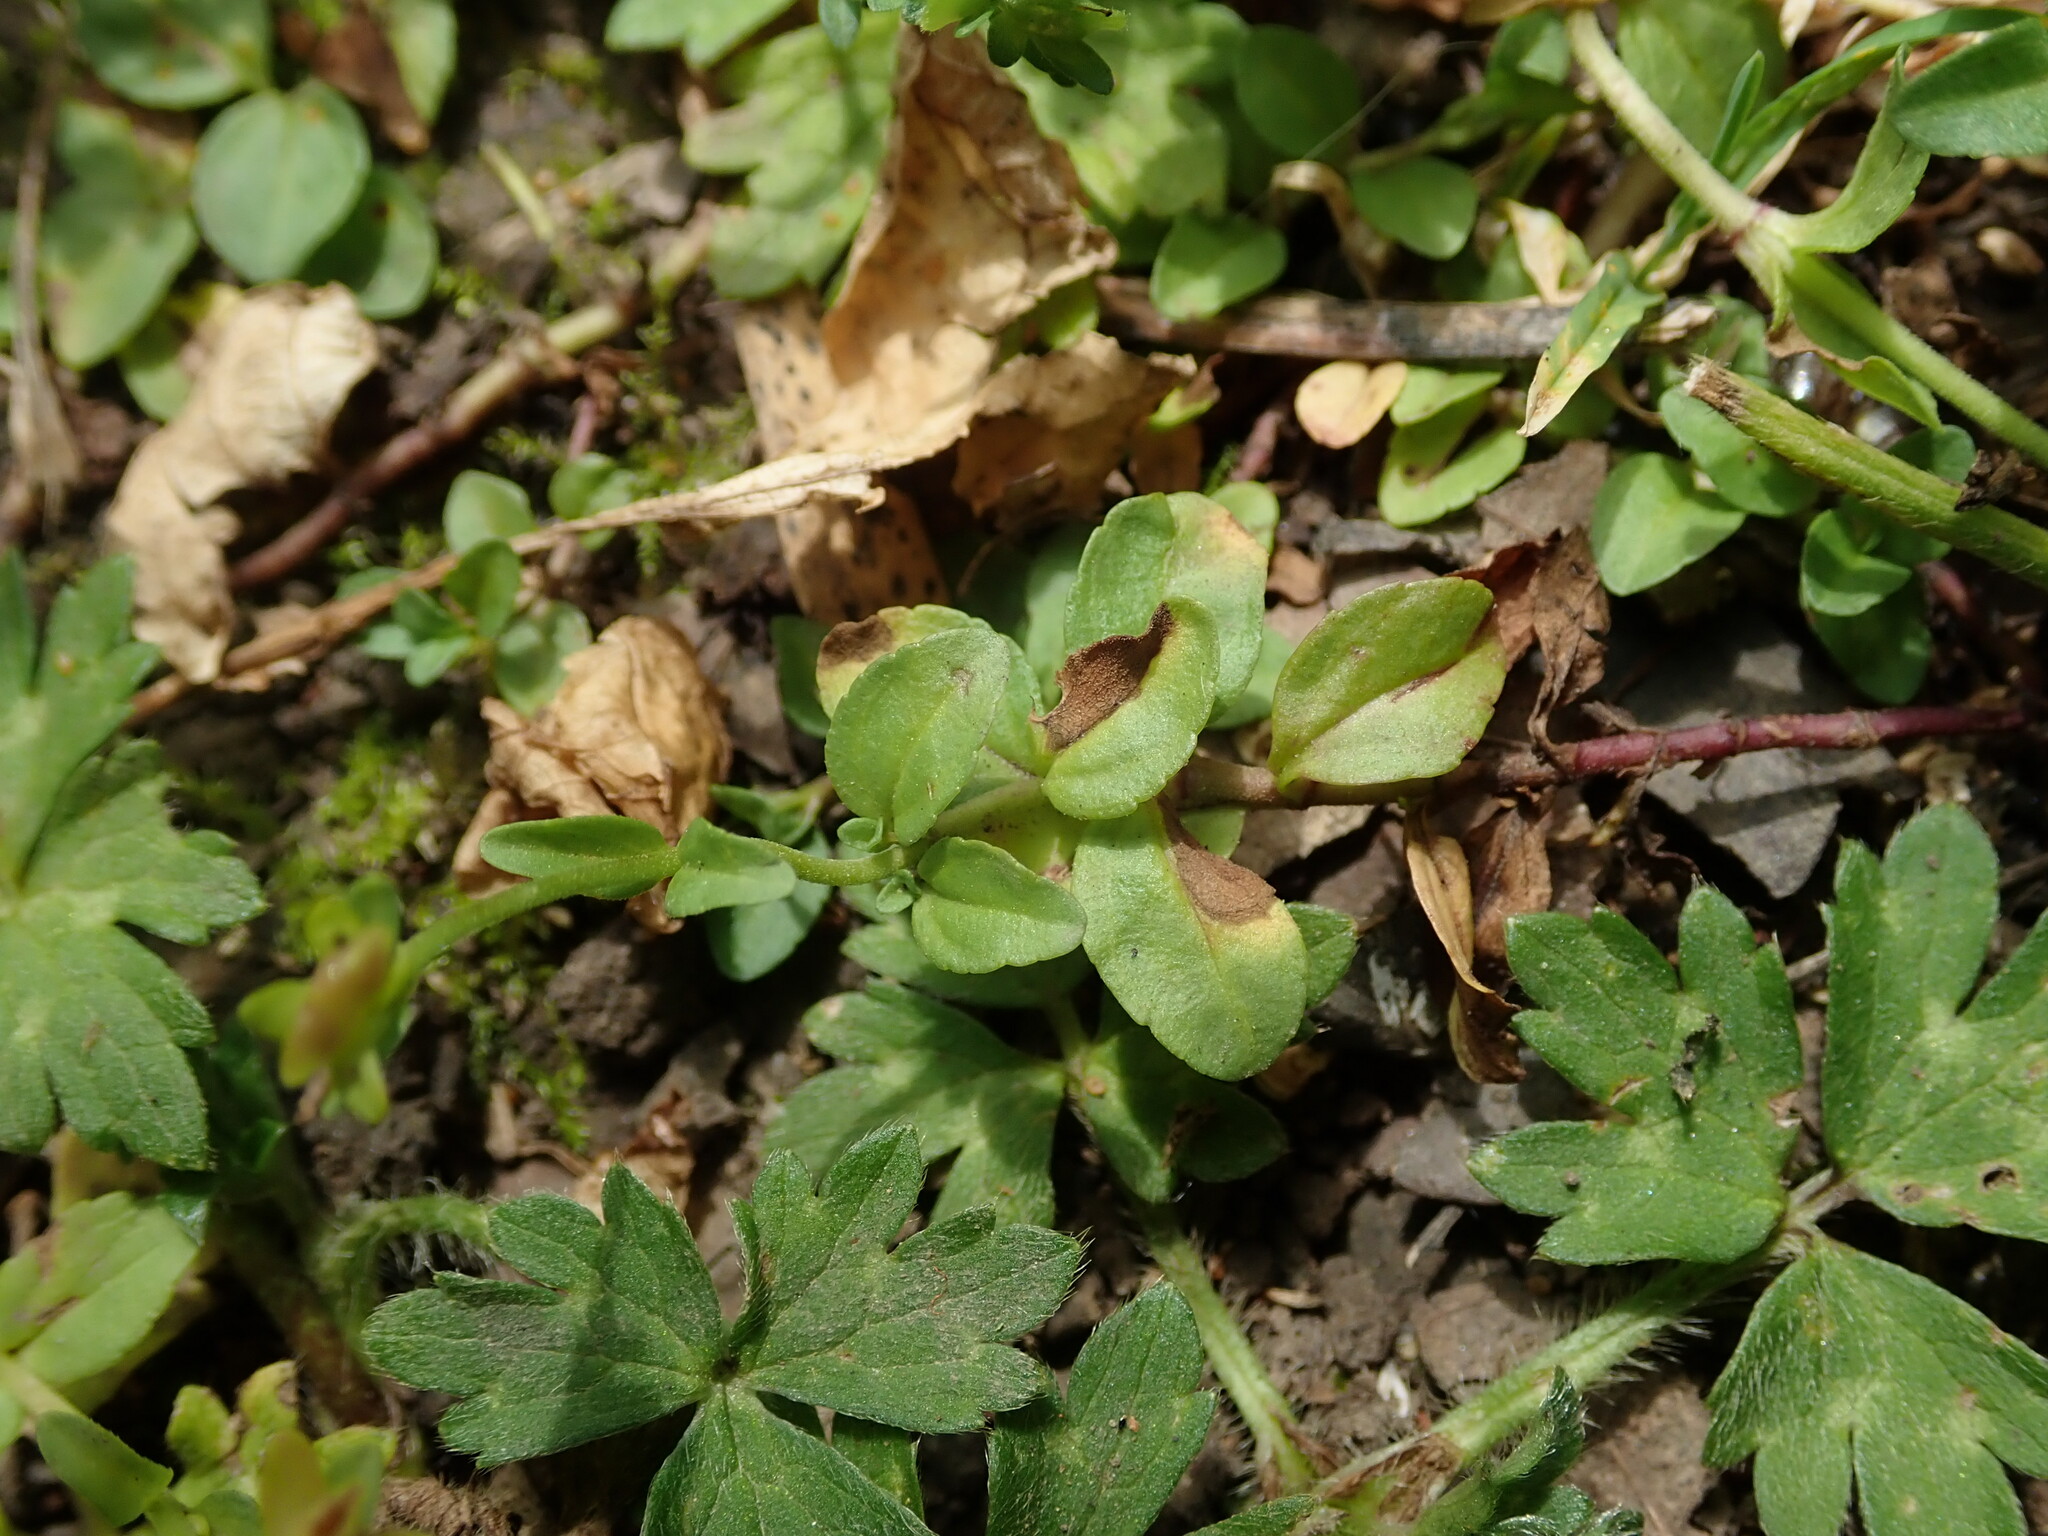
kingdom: Plantae
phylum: Tracheophyta
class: Magnoliopsida
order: Lamiales
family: Plantaginaceae
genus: Veronica
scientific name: Veronica serpyllifolia
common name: Thyme-leaved speedwell
